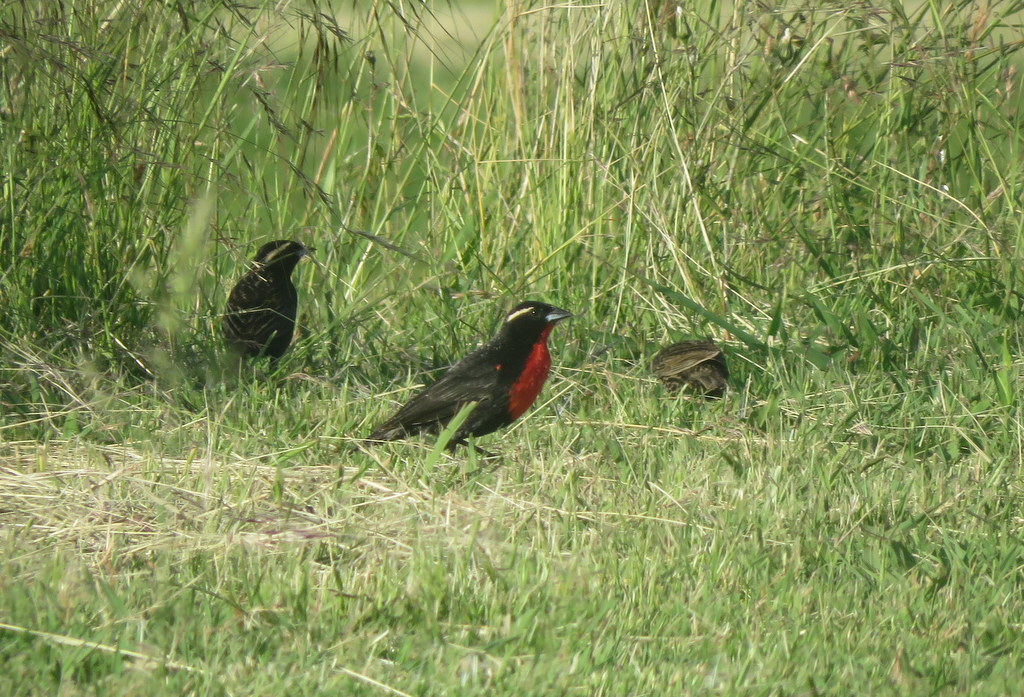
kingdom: Animalia
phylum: Chordata
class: Aves
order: Passeriformes
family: Icteridae
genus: Sturnella
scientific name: Sturnella superciliaris
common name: White-browed blackbird
